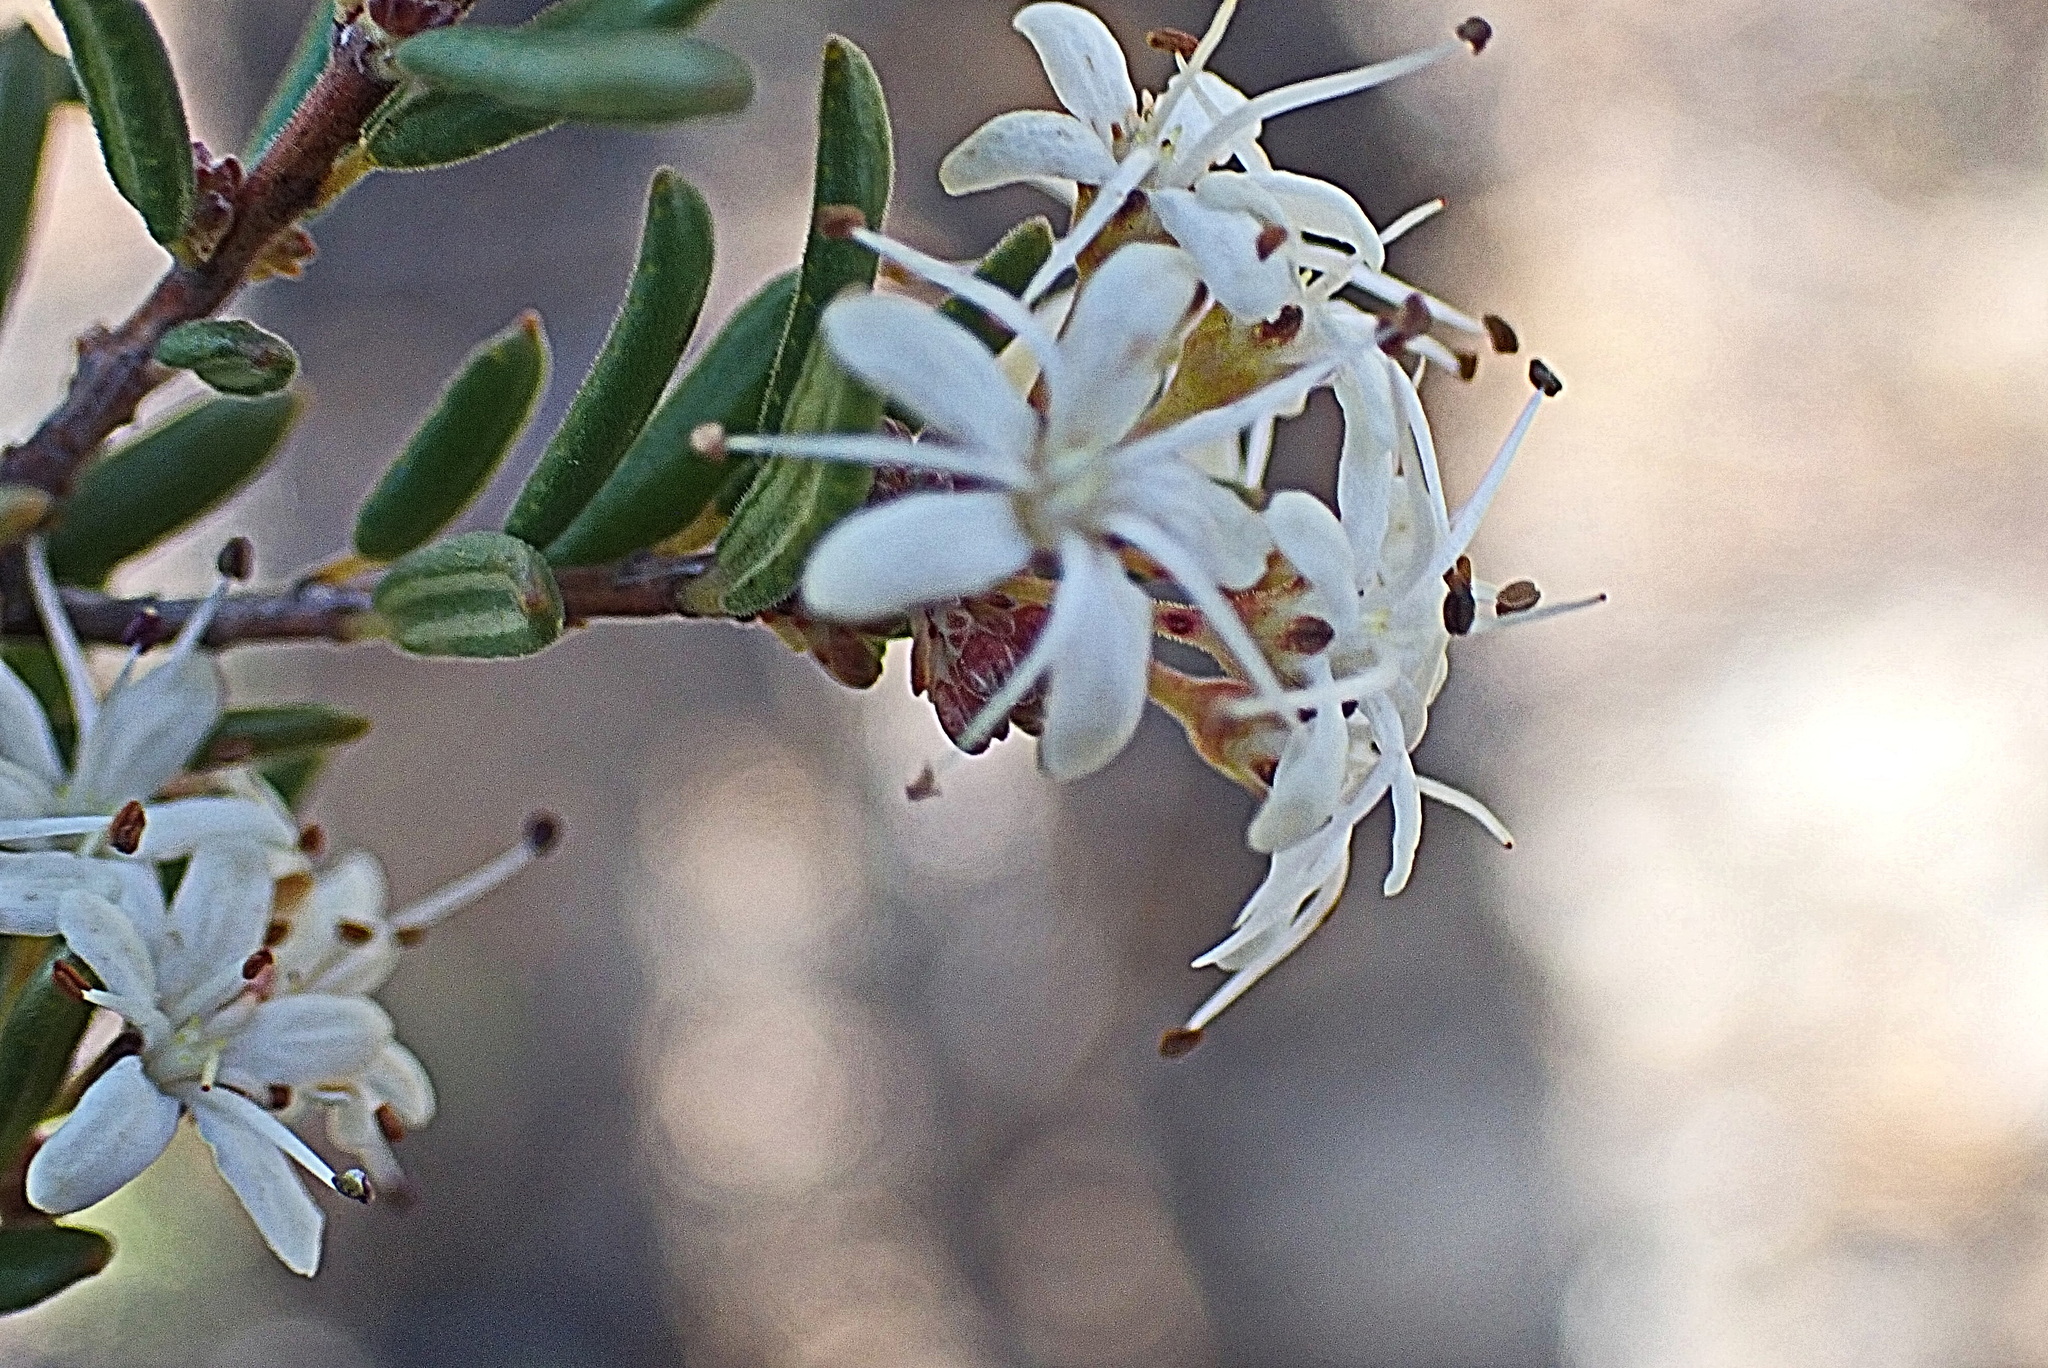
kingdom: Plantae
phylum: Tracheophyta
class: Magnoliopsida
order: Sapindales
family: Rutaceae
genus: Agathosma
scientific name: Agathosma mundtii
